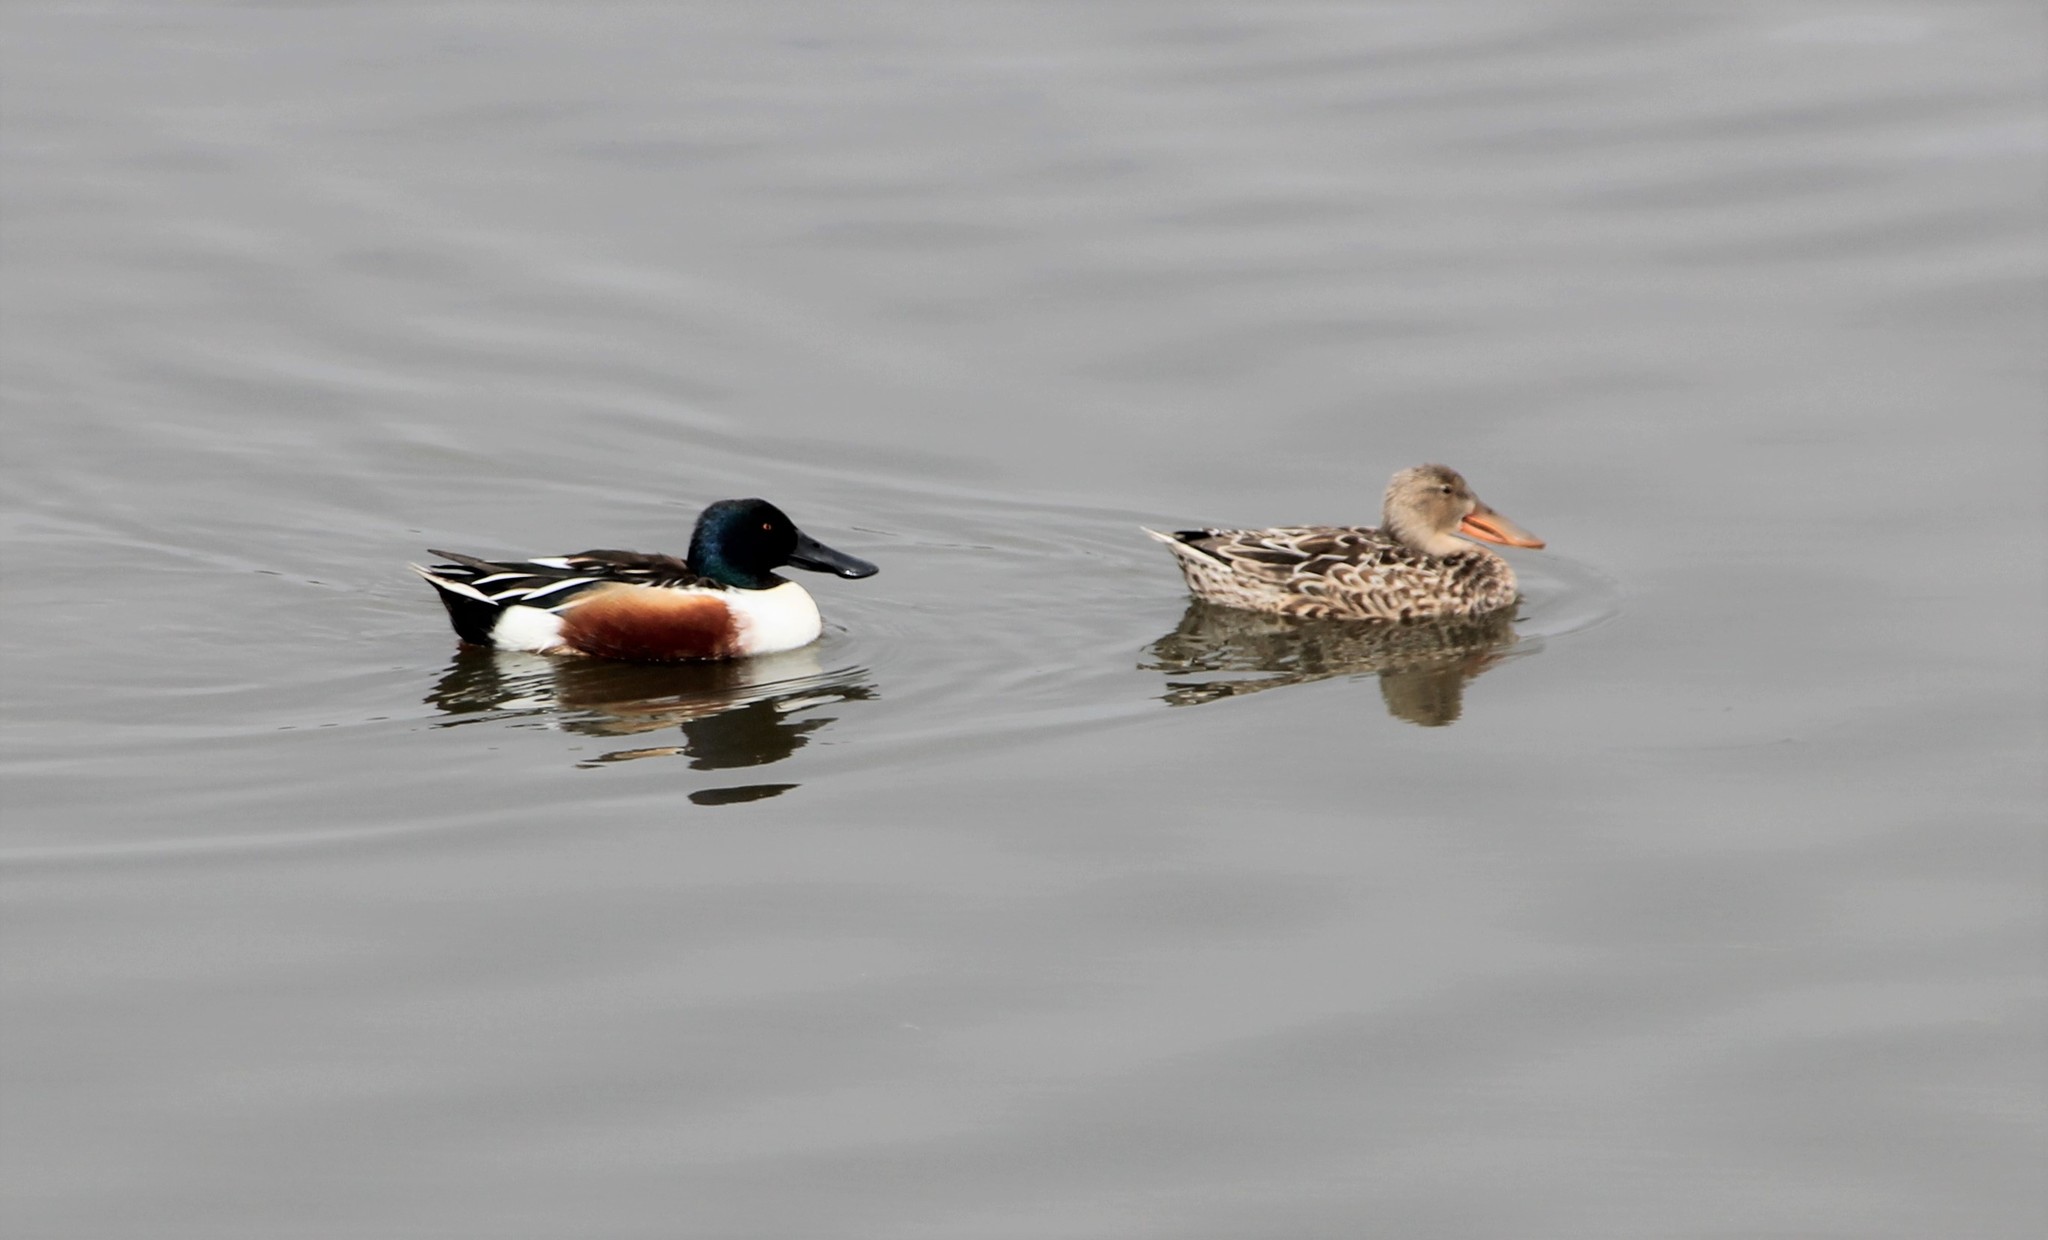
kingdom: Animalia
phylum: Chordata
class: Aves
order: Anseriformes
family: Anatidae
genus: Spatula
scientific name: Spatula clypeata
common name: Northern shoveler
